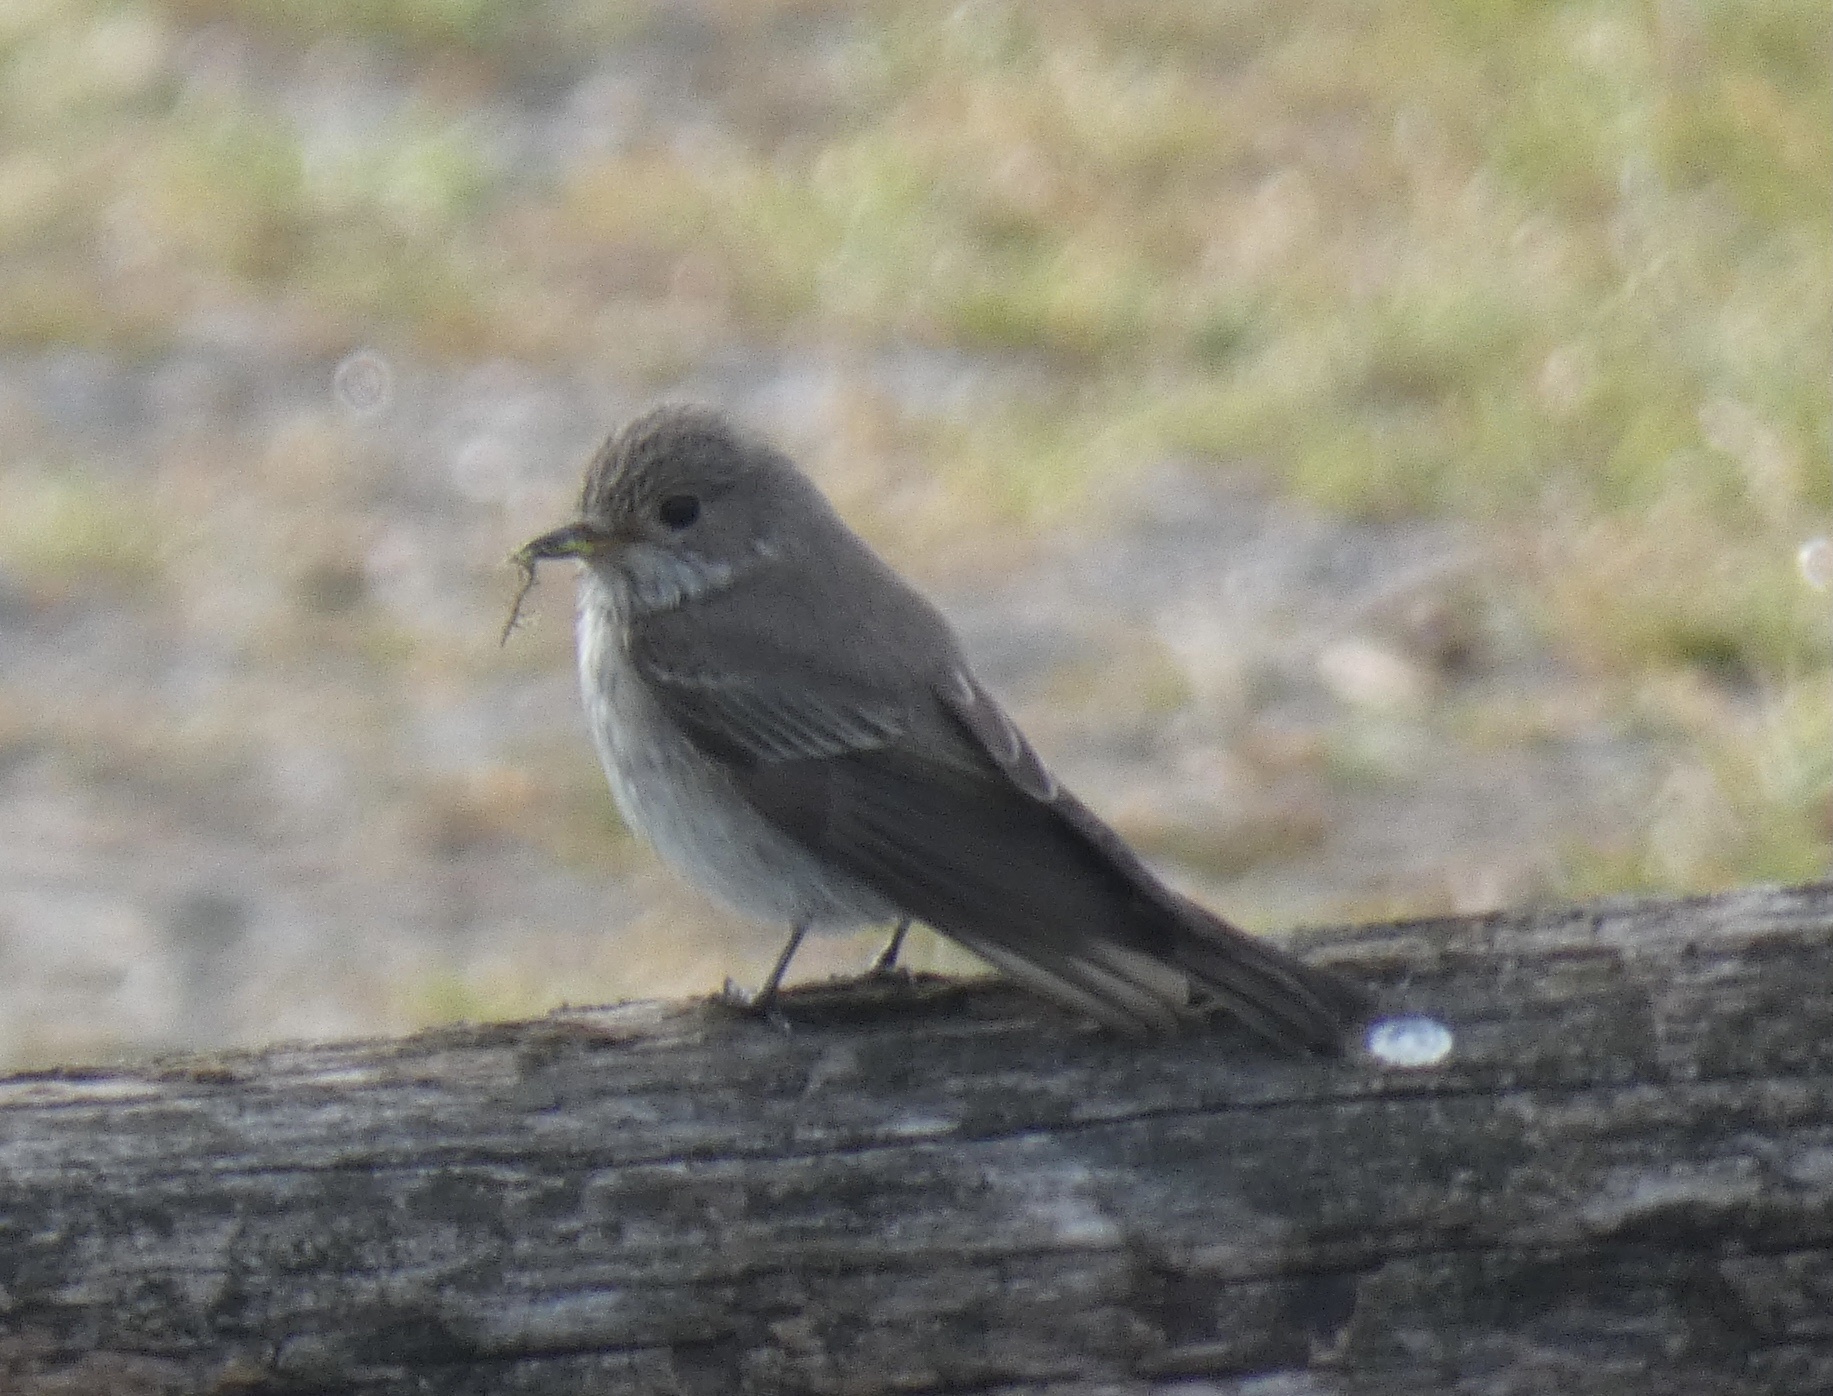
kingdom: Animalia
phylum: Chordata
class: Aves
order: Passeriformes
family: Muscicapidae
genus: Muscicapa
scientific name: Muscicapa striata
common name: Spotted flycatcher
